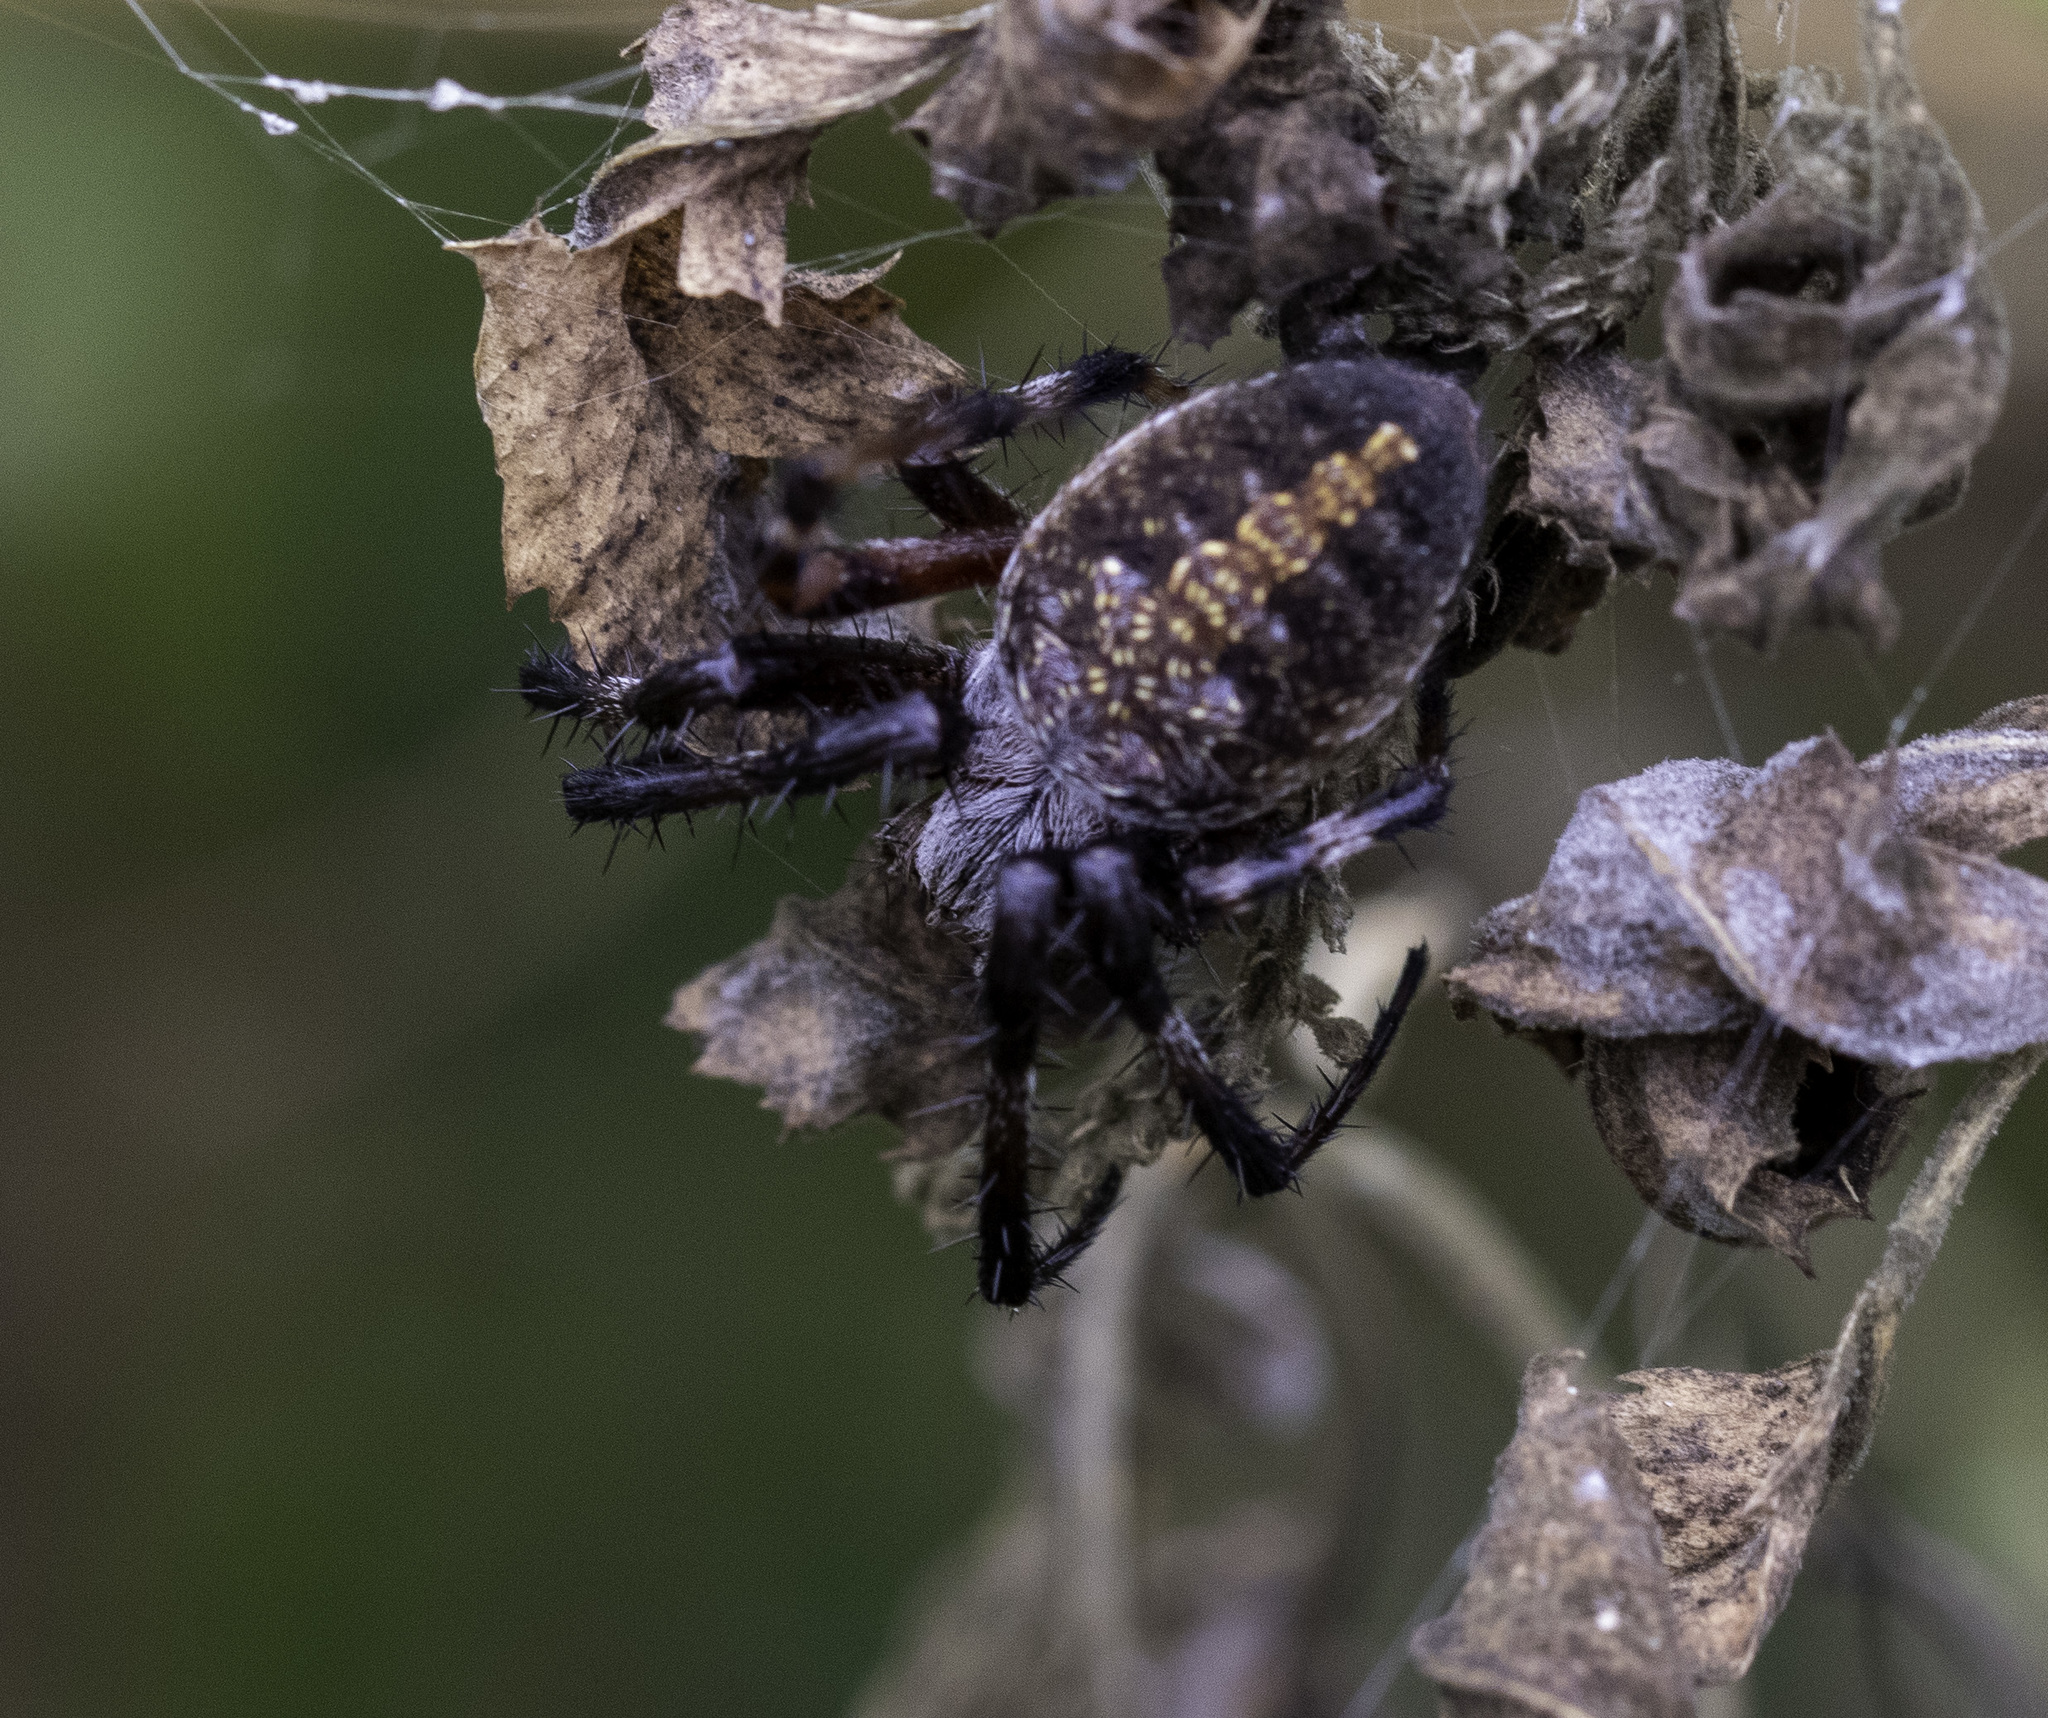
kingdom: Animalia
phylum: Arthropoda
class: Arachnida
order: Araneae
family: Araneidae
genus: Neoscona
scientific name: Neoscona oaxacensis
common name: Orb weavers
